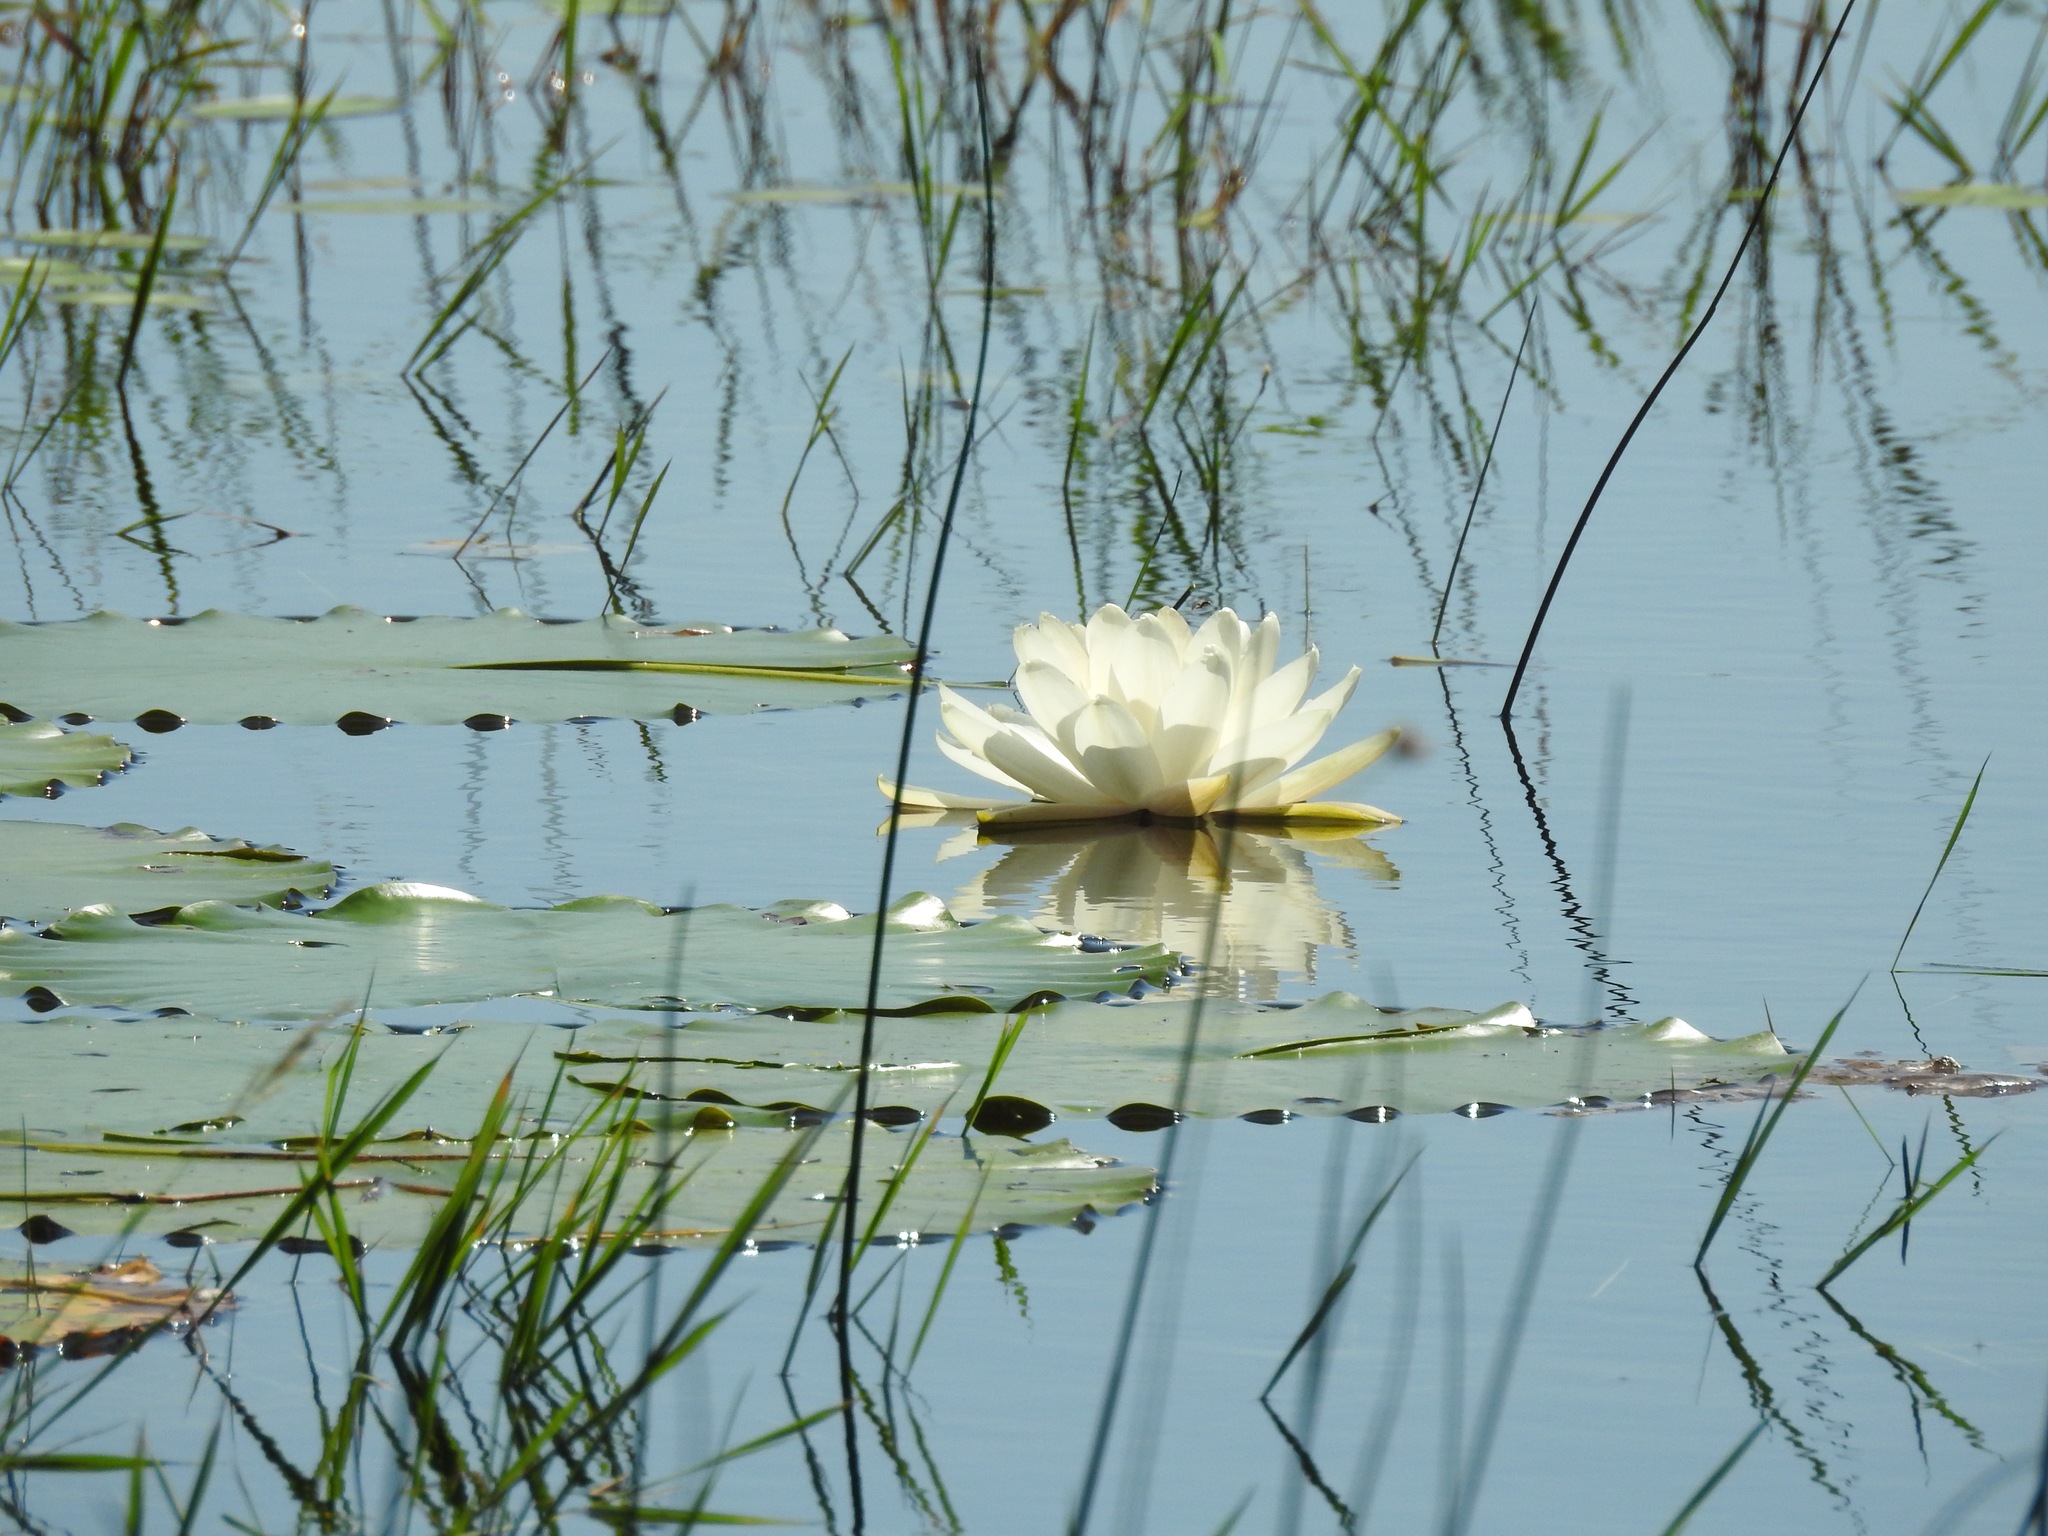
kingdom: Plantae
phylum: Tracheophyta
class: Magnoliopsida
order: Nymphaeales
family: Nymphaeaceae
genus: Nymphaea
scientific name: Nymphaea odorata
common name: Fragrant water-lily
